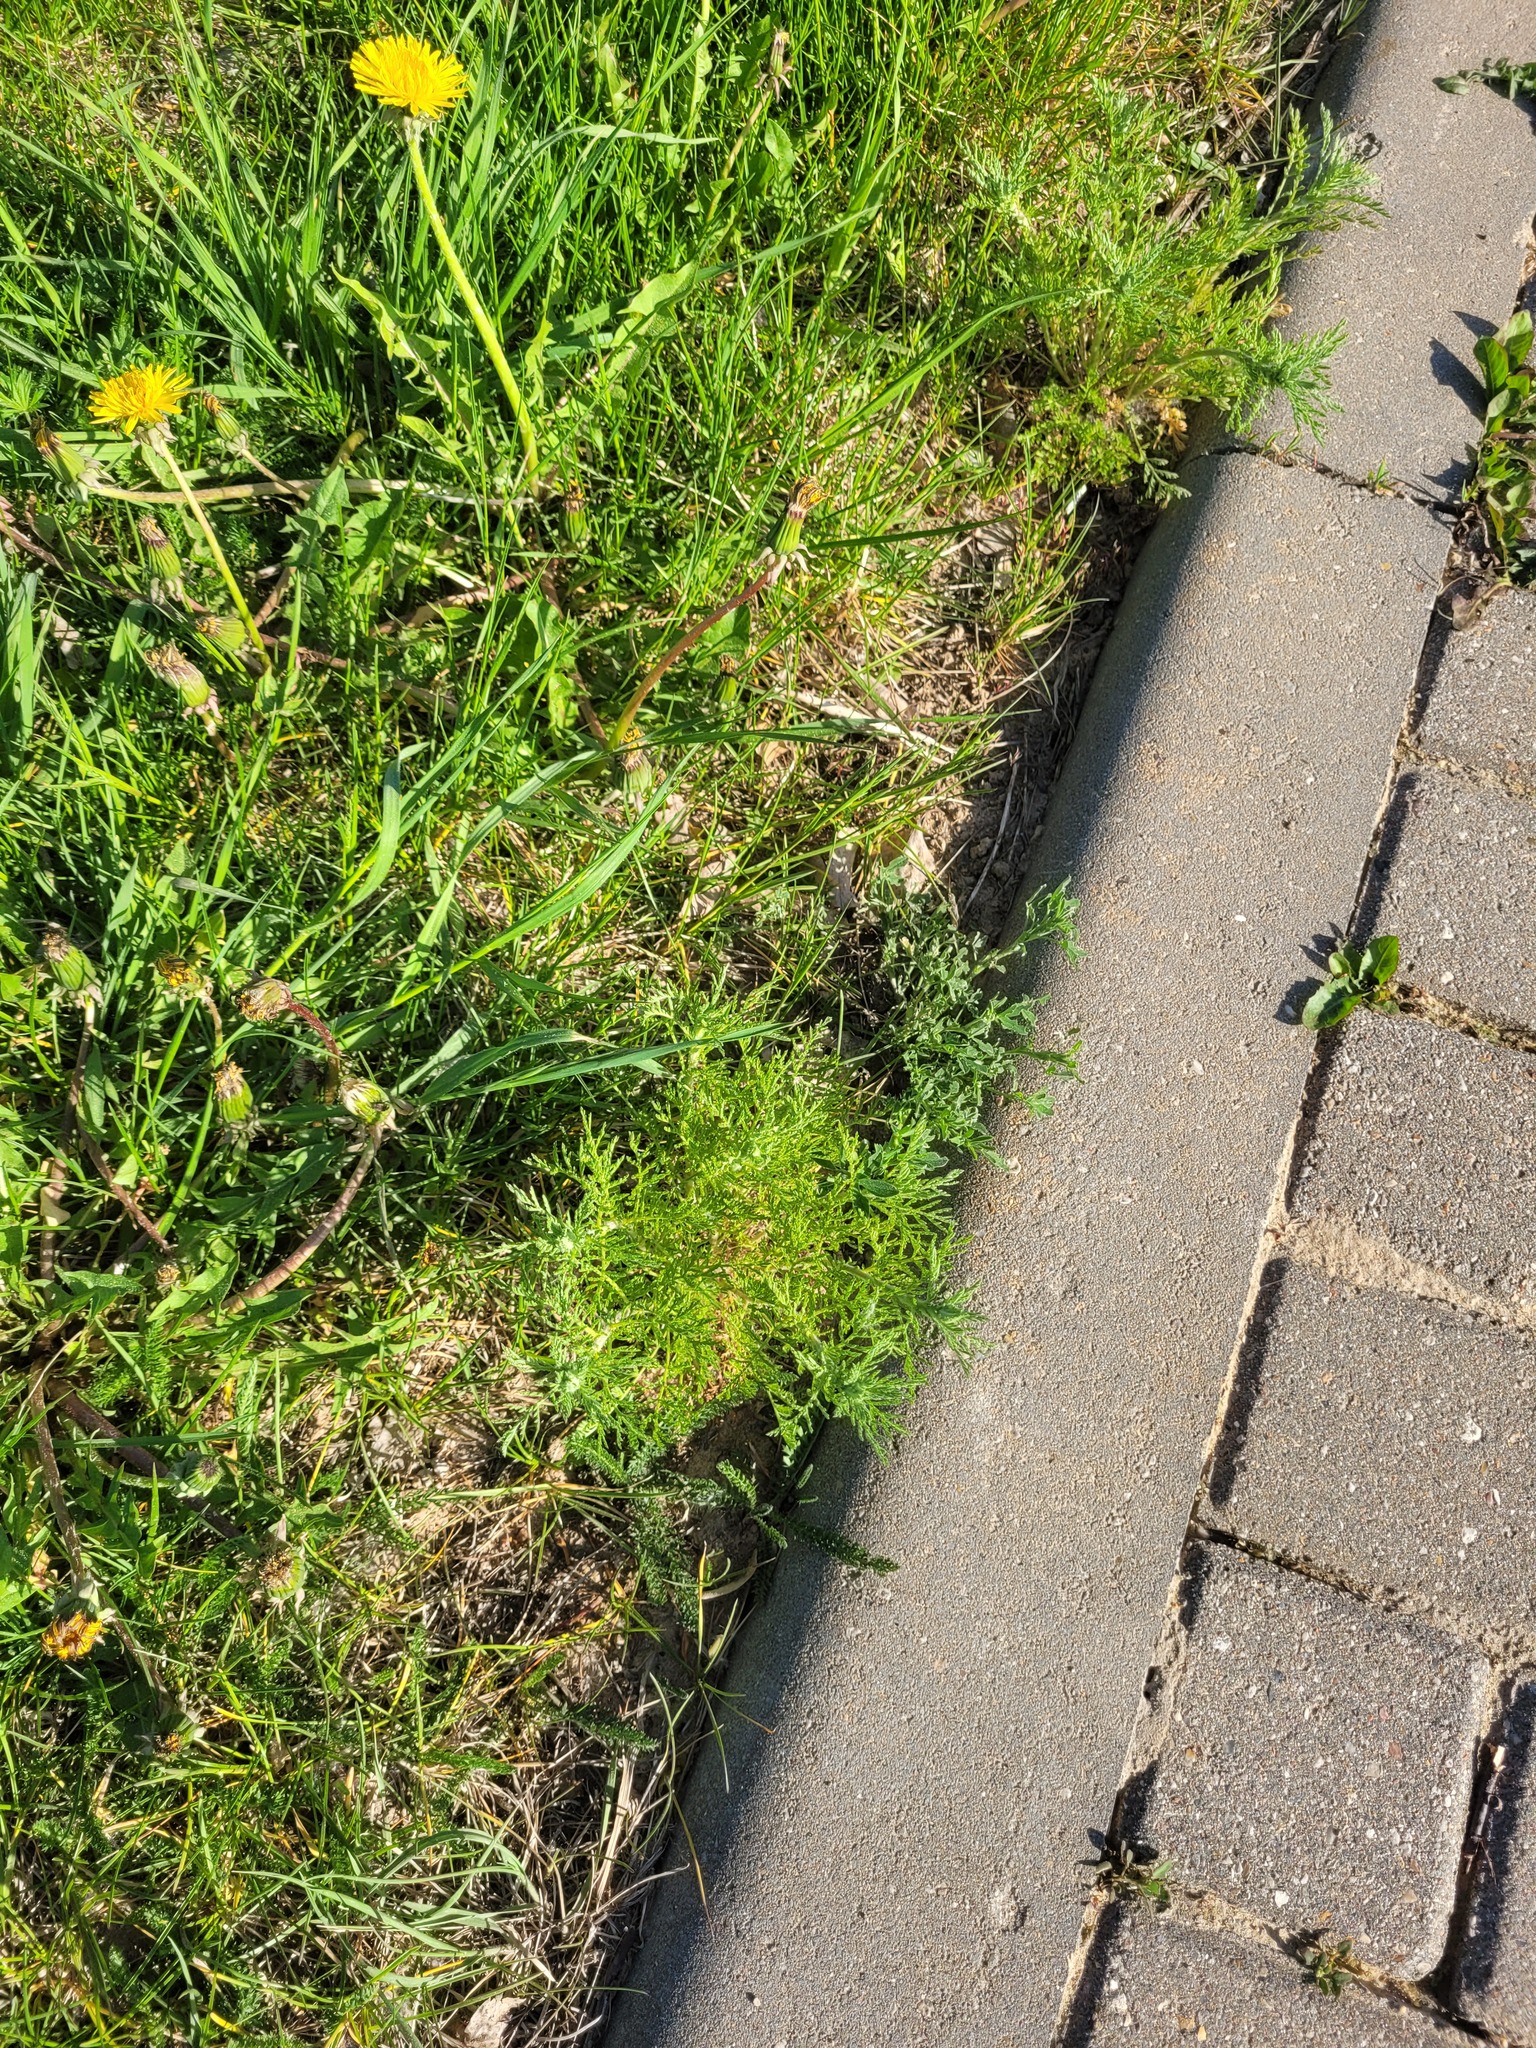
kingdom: Plantae
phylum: Tracheophyta
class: Magnoliopsida
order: Asterales
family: Asteraceae
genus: Achillea
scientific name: Achillea nobilis
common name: Noble yarrow
